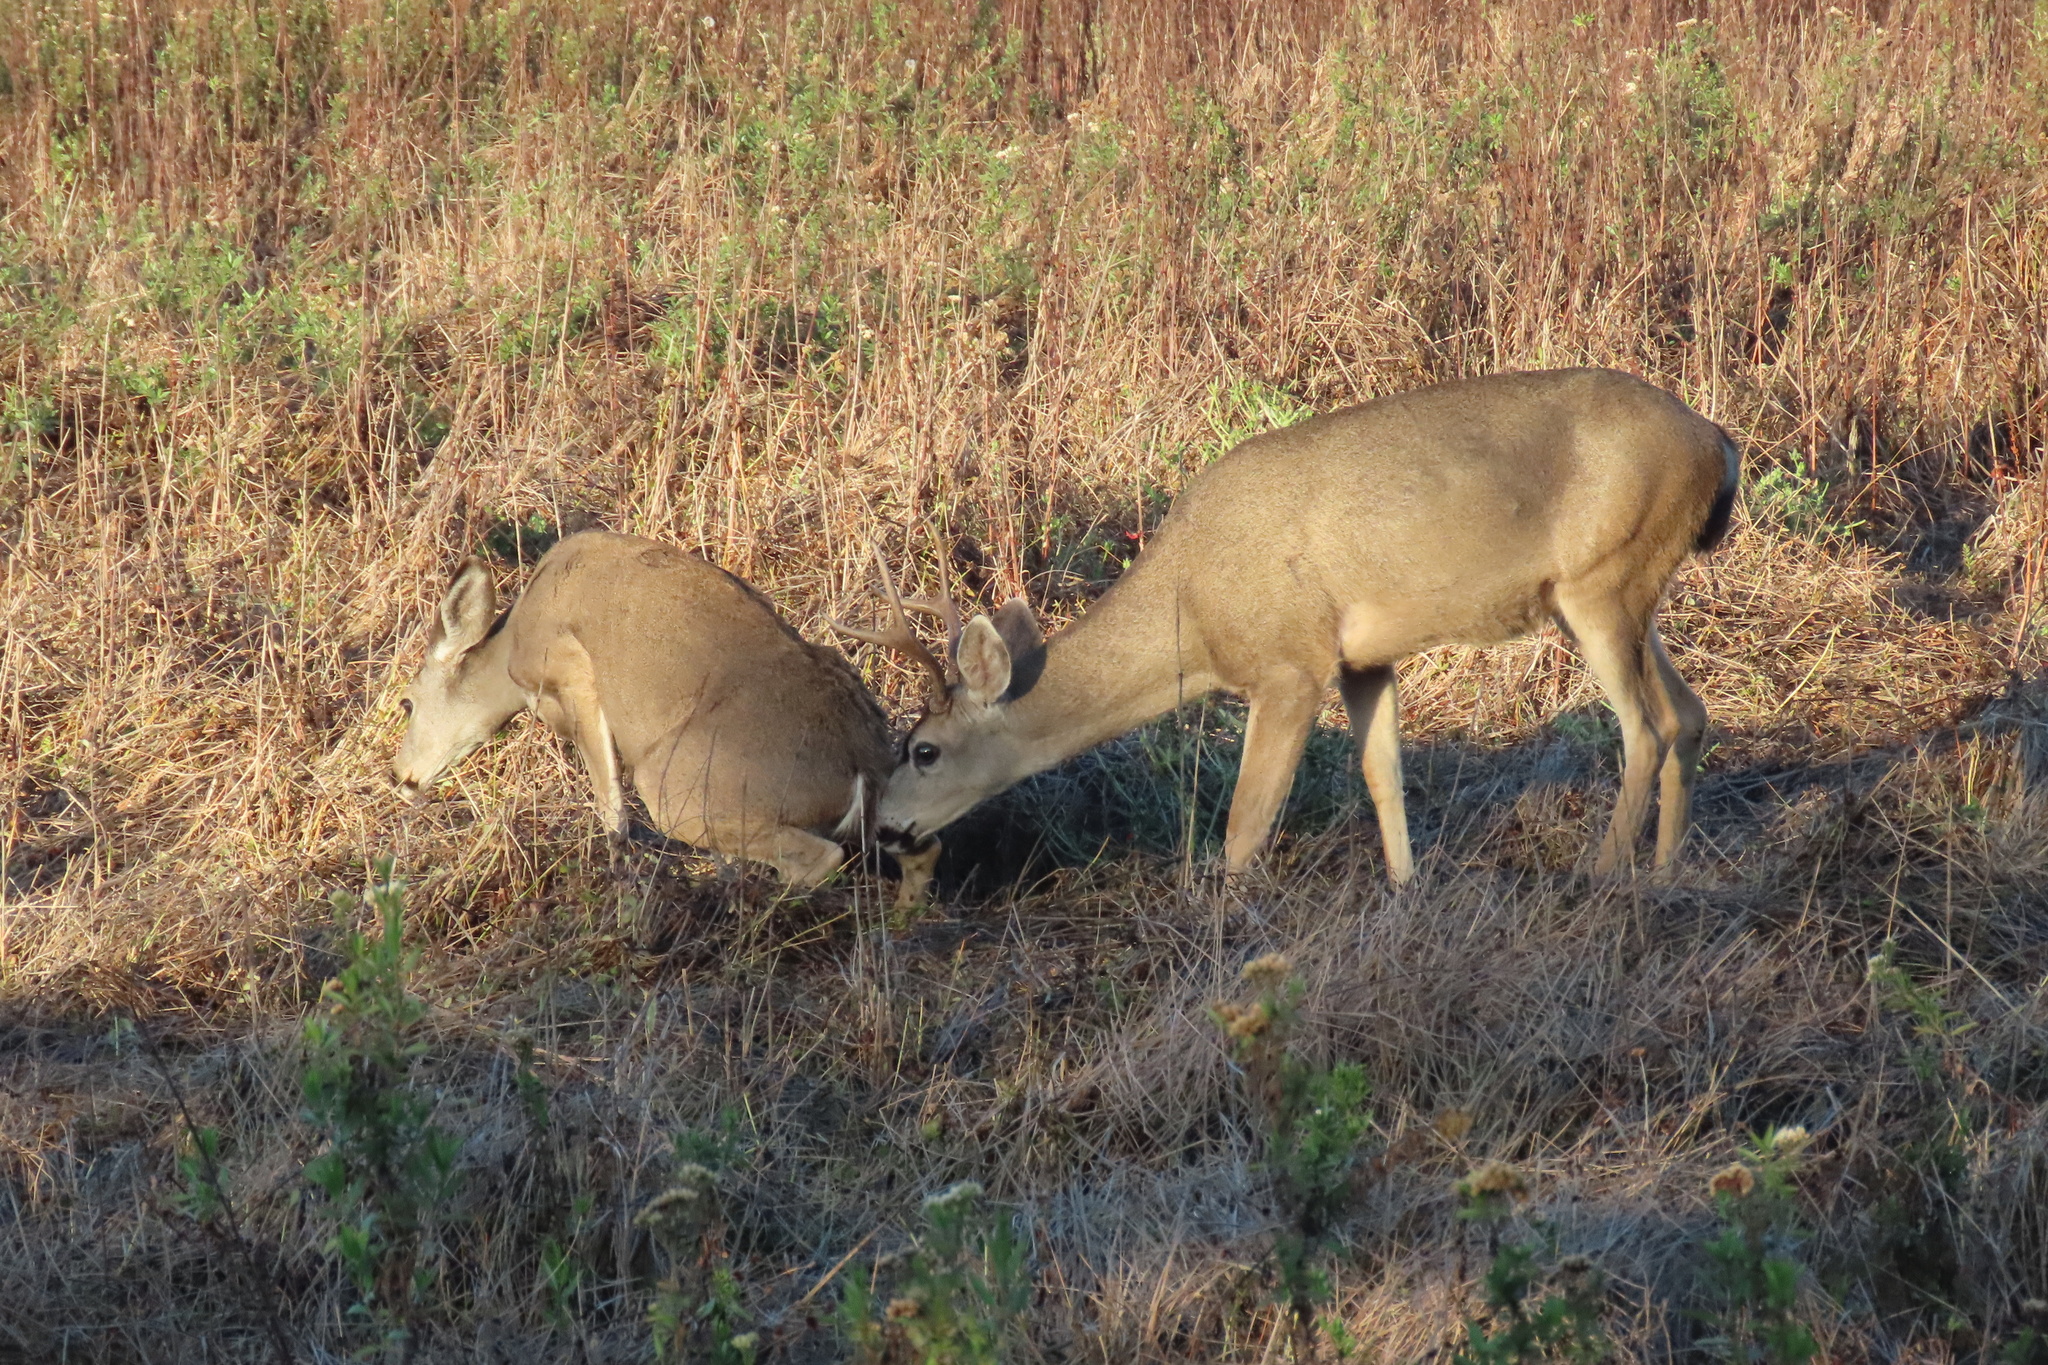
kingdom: Animalia
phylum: Chordata
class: Mammalia
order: Artiodactyla
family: Cervidae
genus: Odocoileus
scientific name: Odocoileus hemionus
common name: Mule deer
